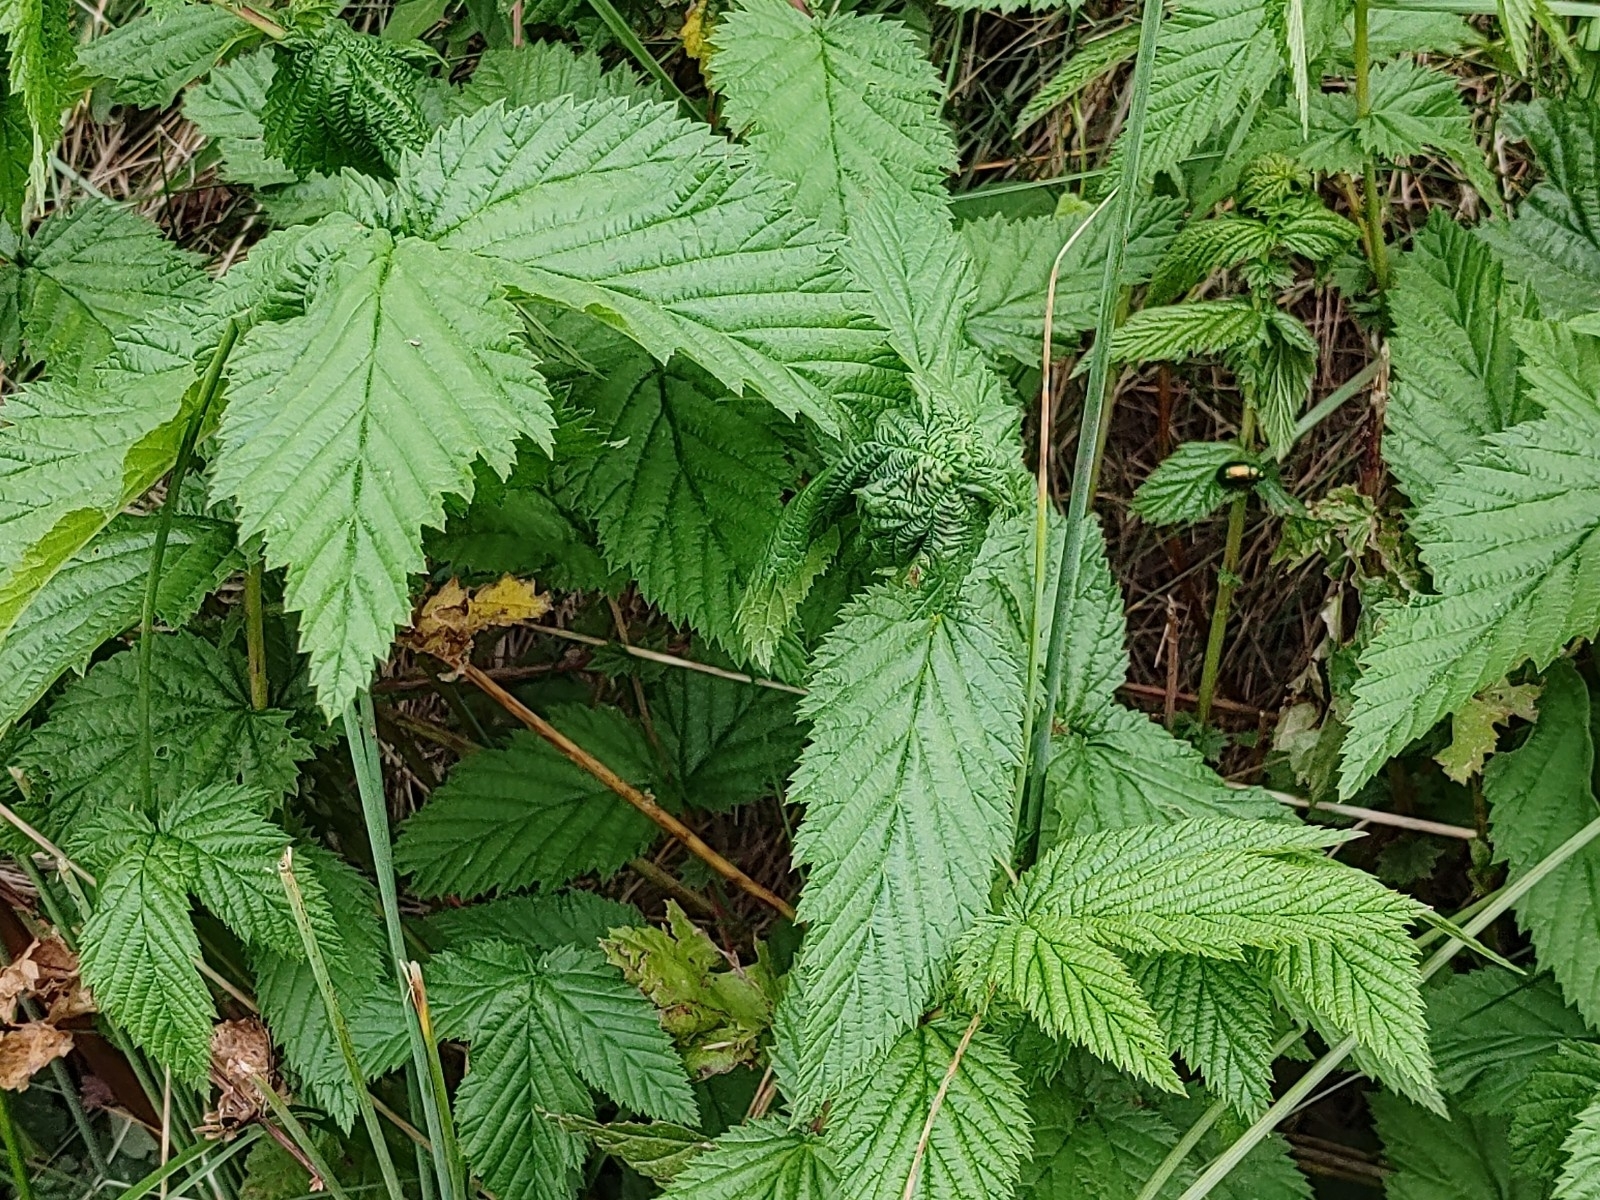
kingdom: Plantae
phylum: Tracheophyta
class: Magnoliopsida
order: Rosales
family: Rosaceae
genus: Filipendula
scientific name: Filipendula ulmaria
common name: Meadowsweet
